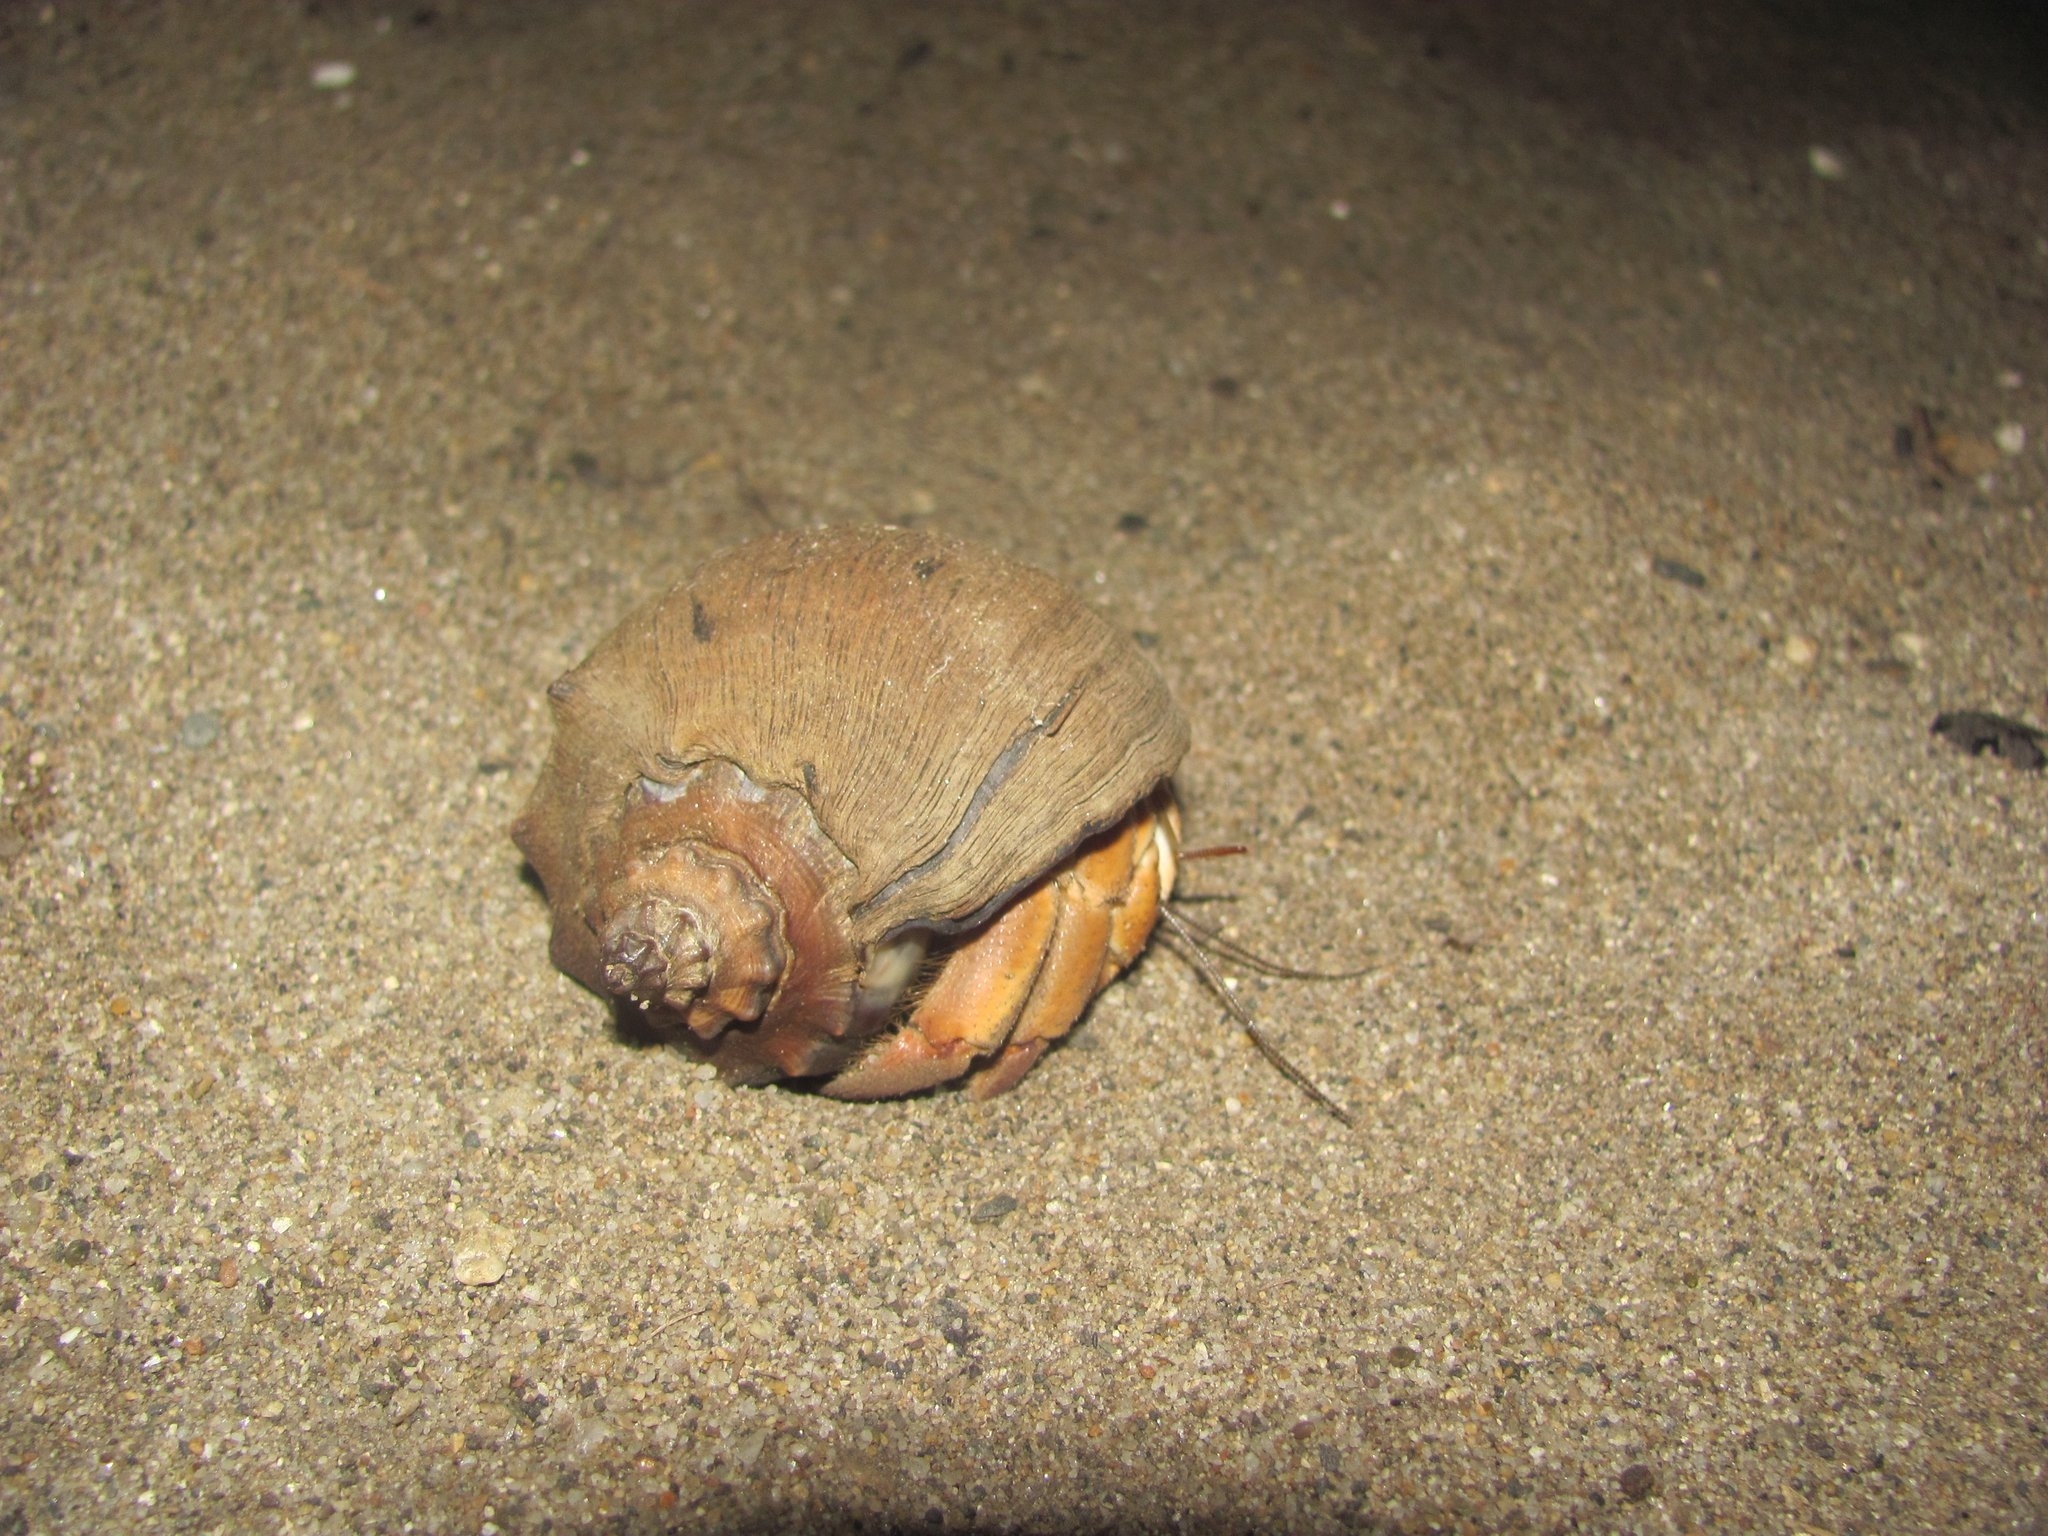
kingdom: Animalia
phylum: Arthropoda
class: Malacostraca
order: Decapoda
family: Coenobitidae
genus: Coenobita
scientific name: Coenobita compressus
